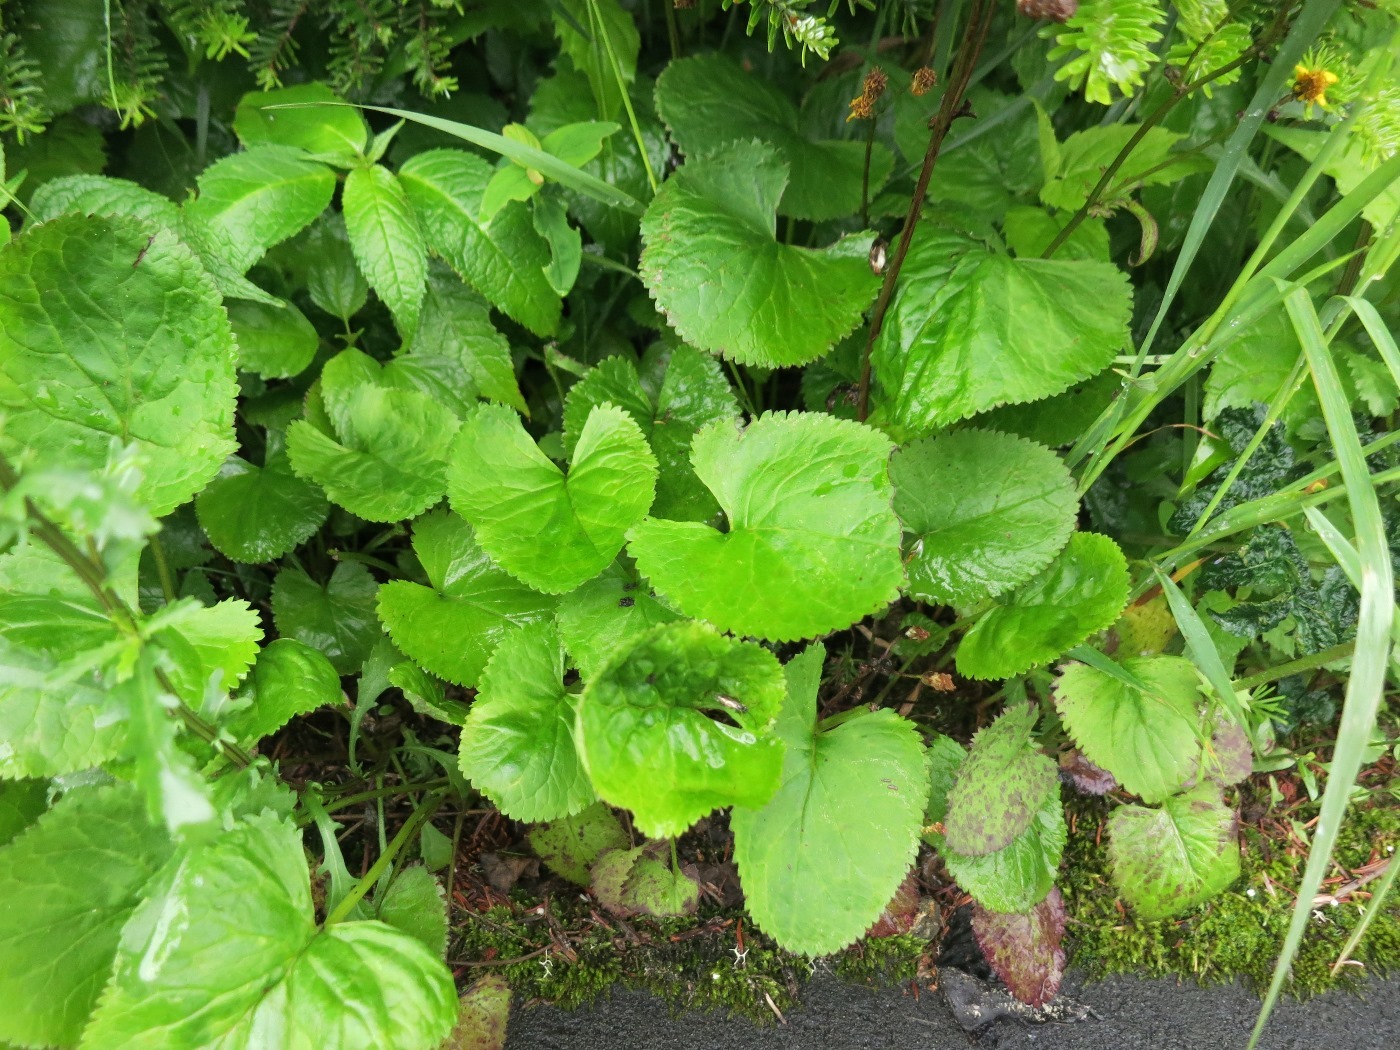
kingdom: Plantae
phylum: Tracheophyta
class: Magnoliopsida
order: Asterales
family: Asteraceae
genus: Packera
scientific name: Packera aurea
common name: Golden groundsel
